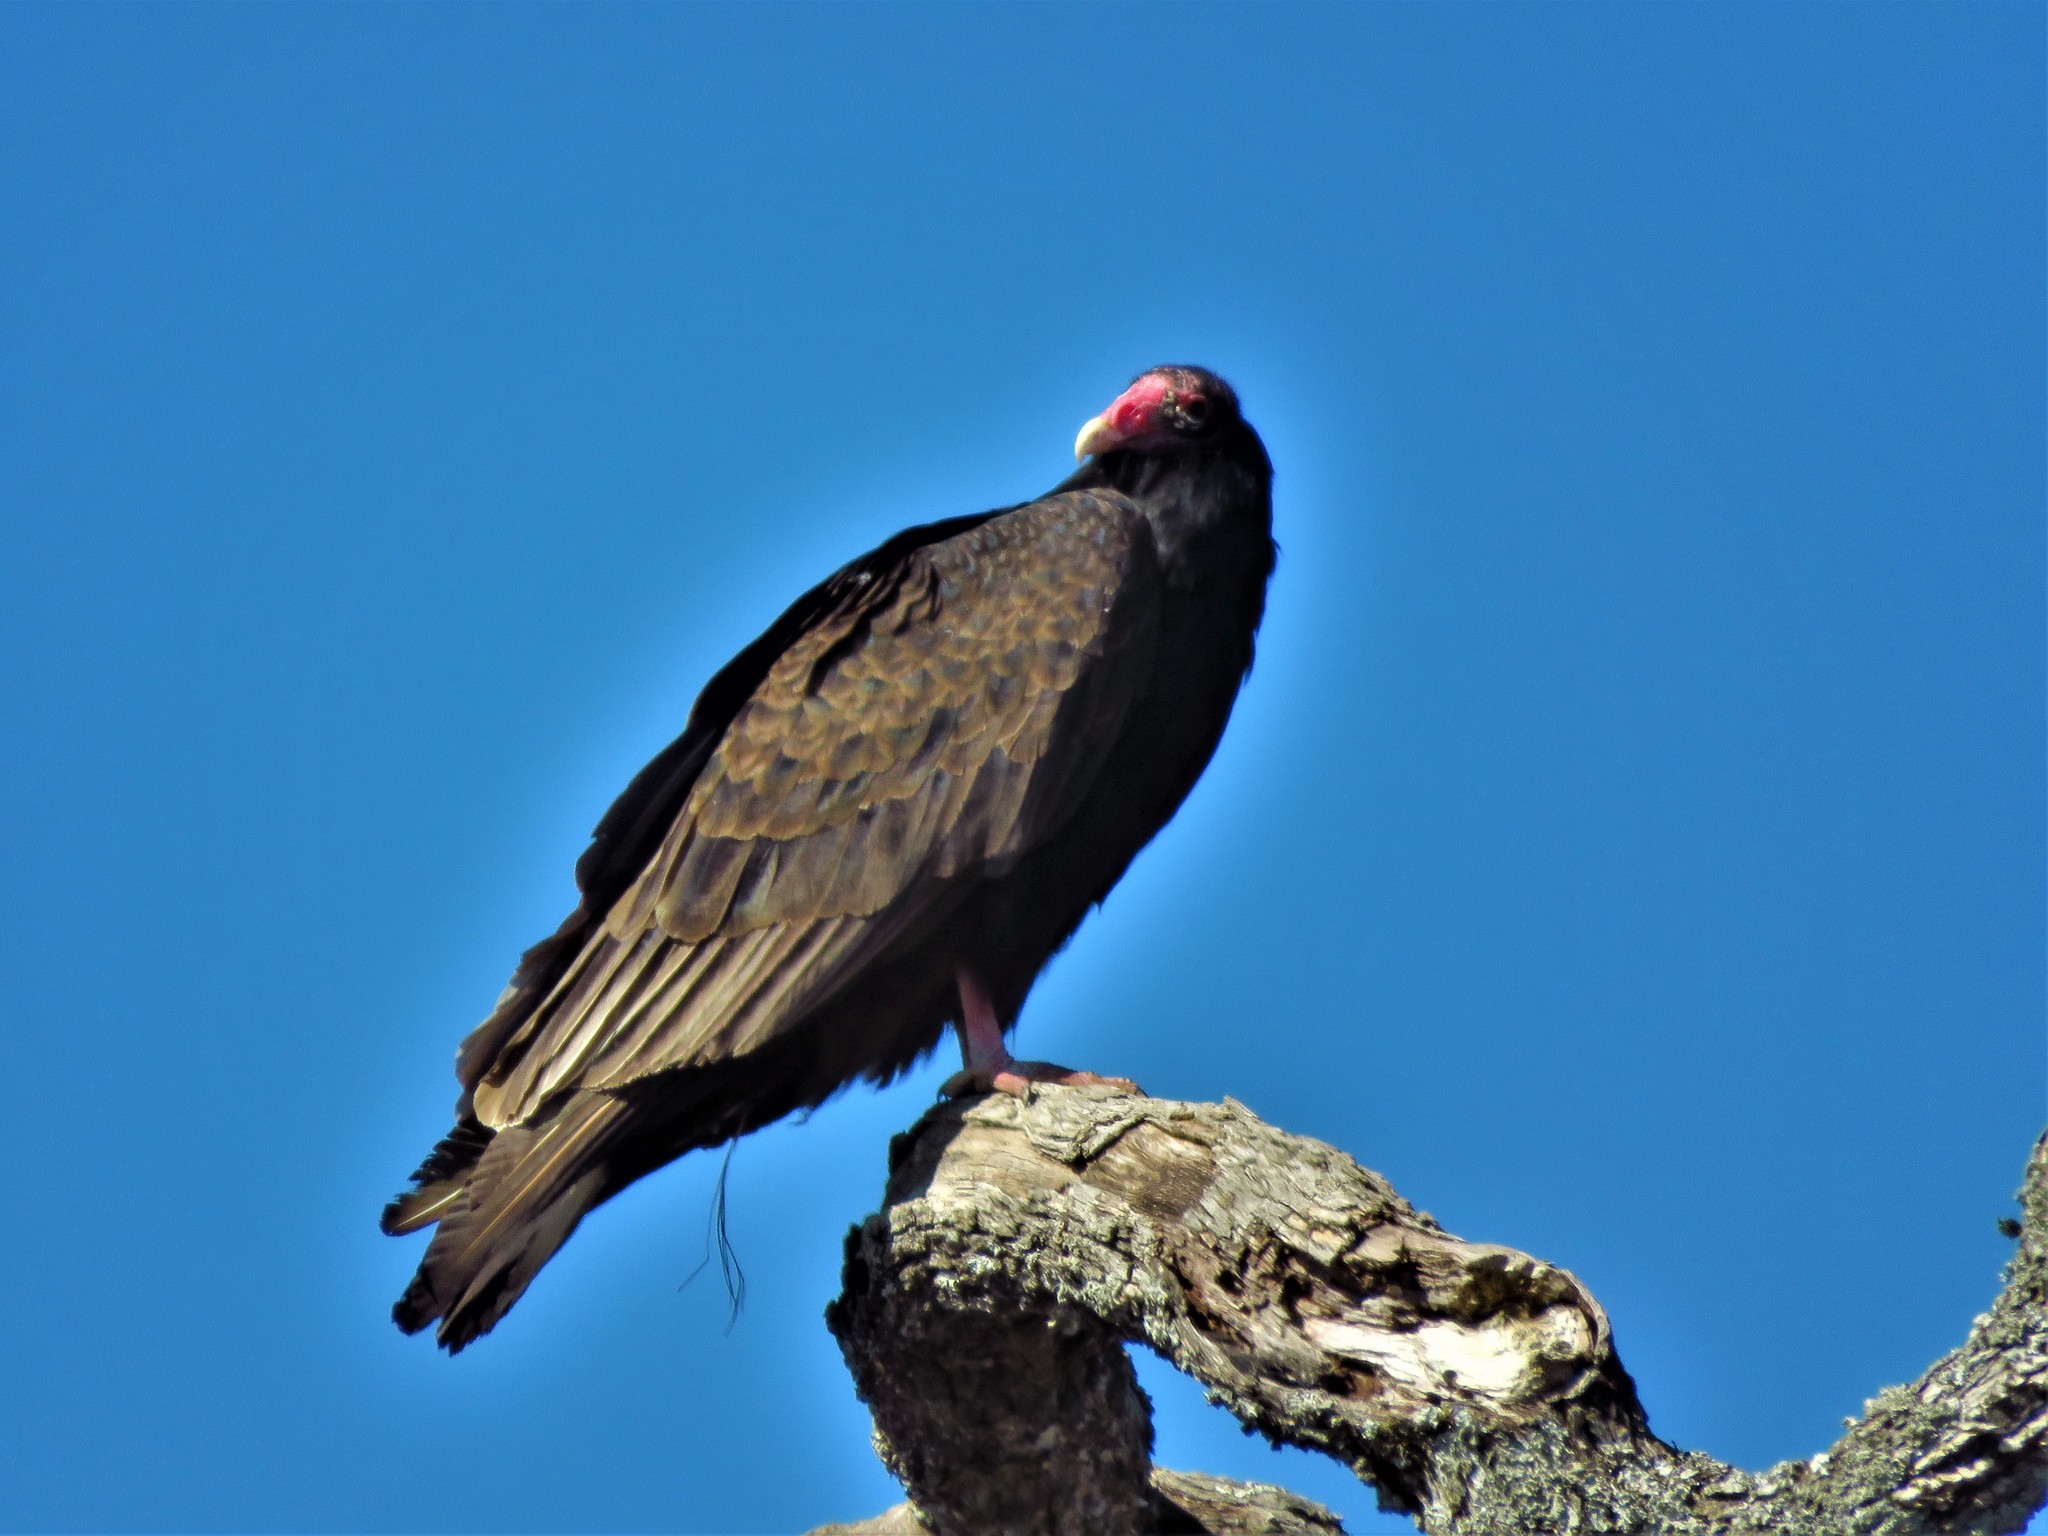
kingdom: Animalia
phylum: Chordata
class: Aves
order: Accipitriformes
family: Cathartidae
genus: Cathartes
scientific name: Cathartes aura
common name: Turkey vulture
